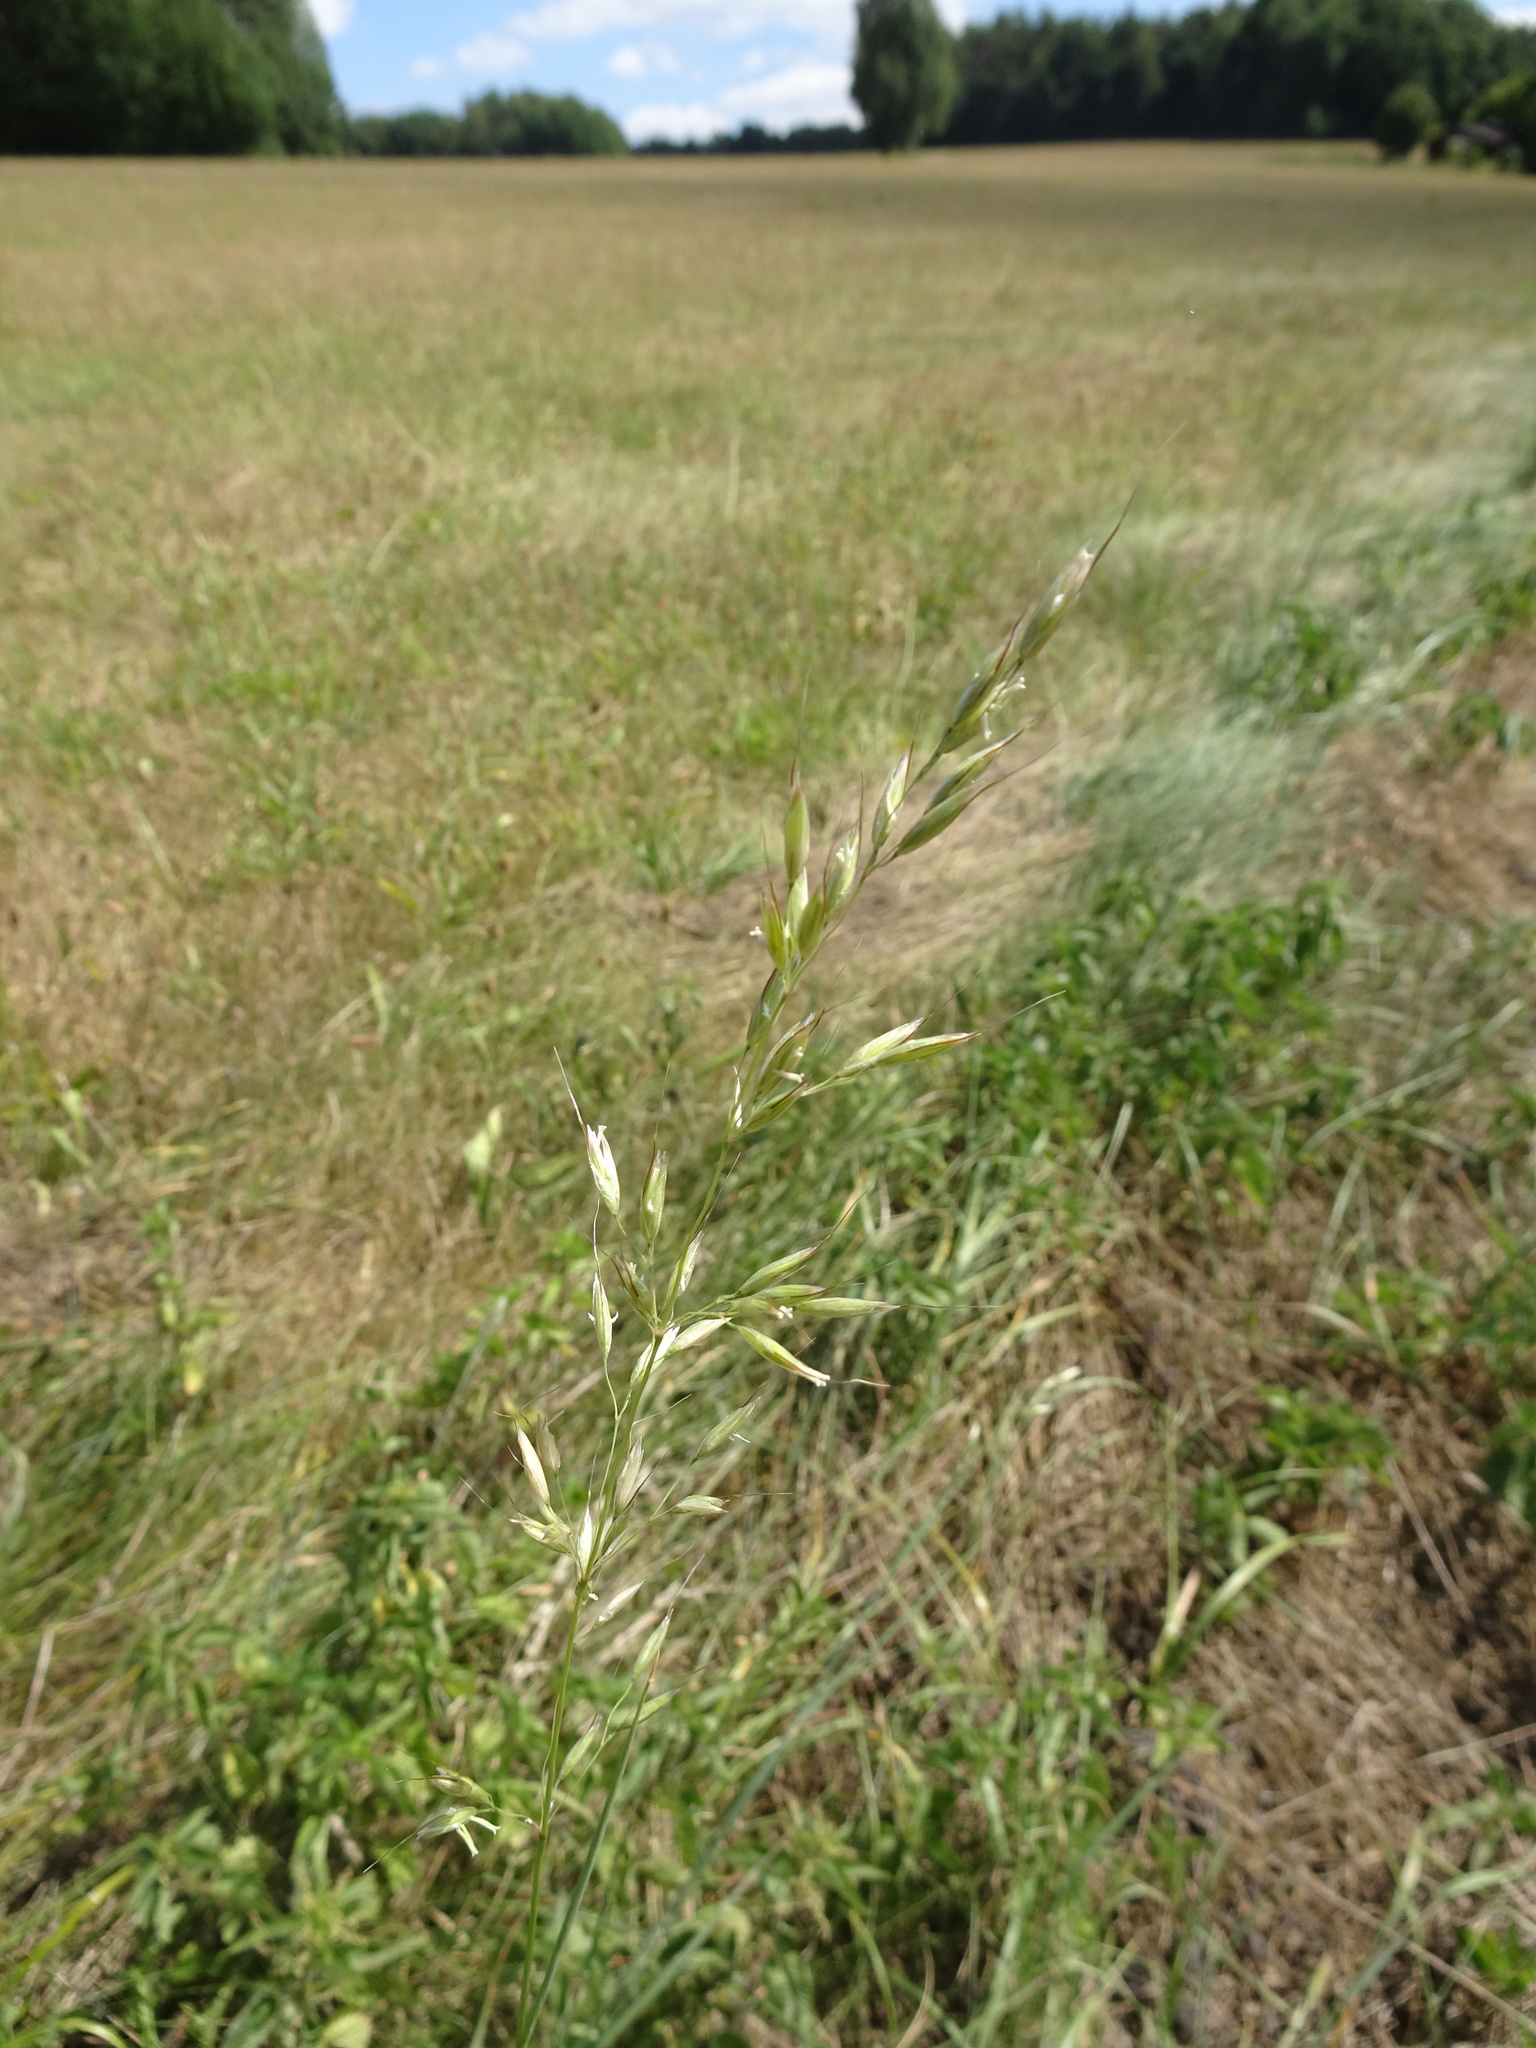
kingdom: Plantae
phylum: Tracheophyta
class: Liliopsida
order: Poales
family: Poaceae
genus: Arrhenatherum
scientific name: Arrhenatherum elatius
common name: Tall oatgrass
